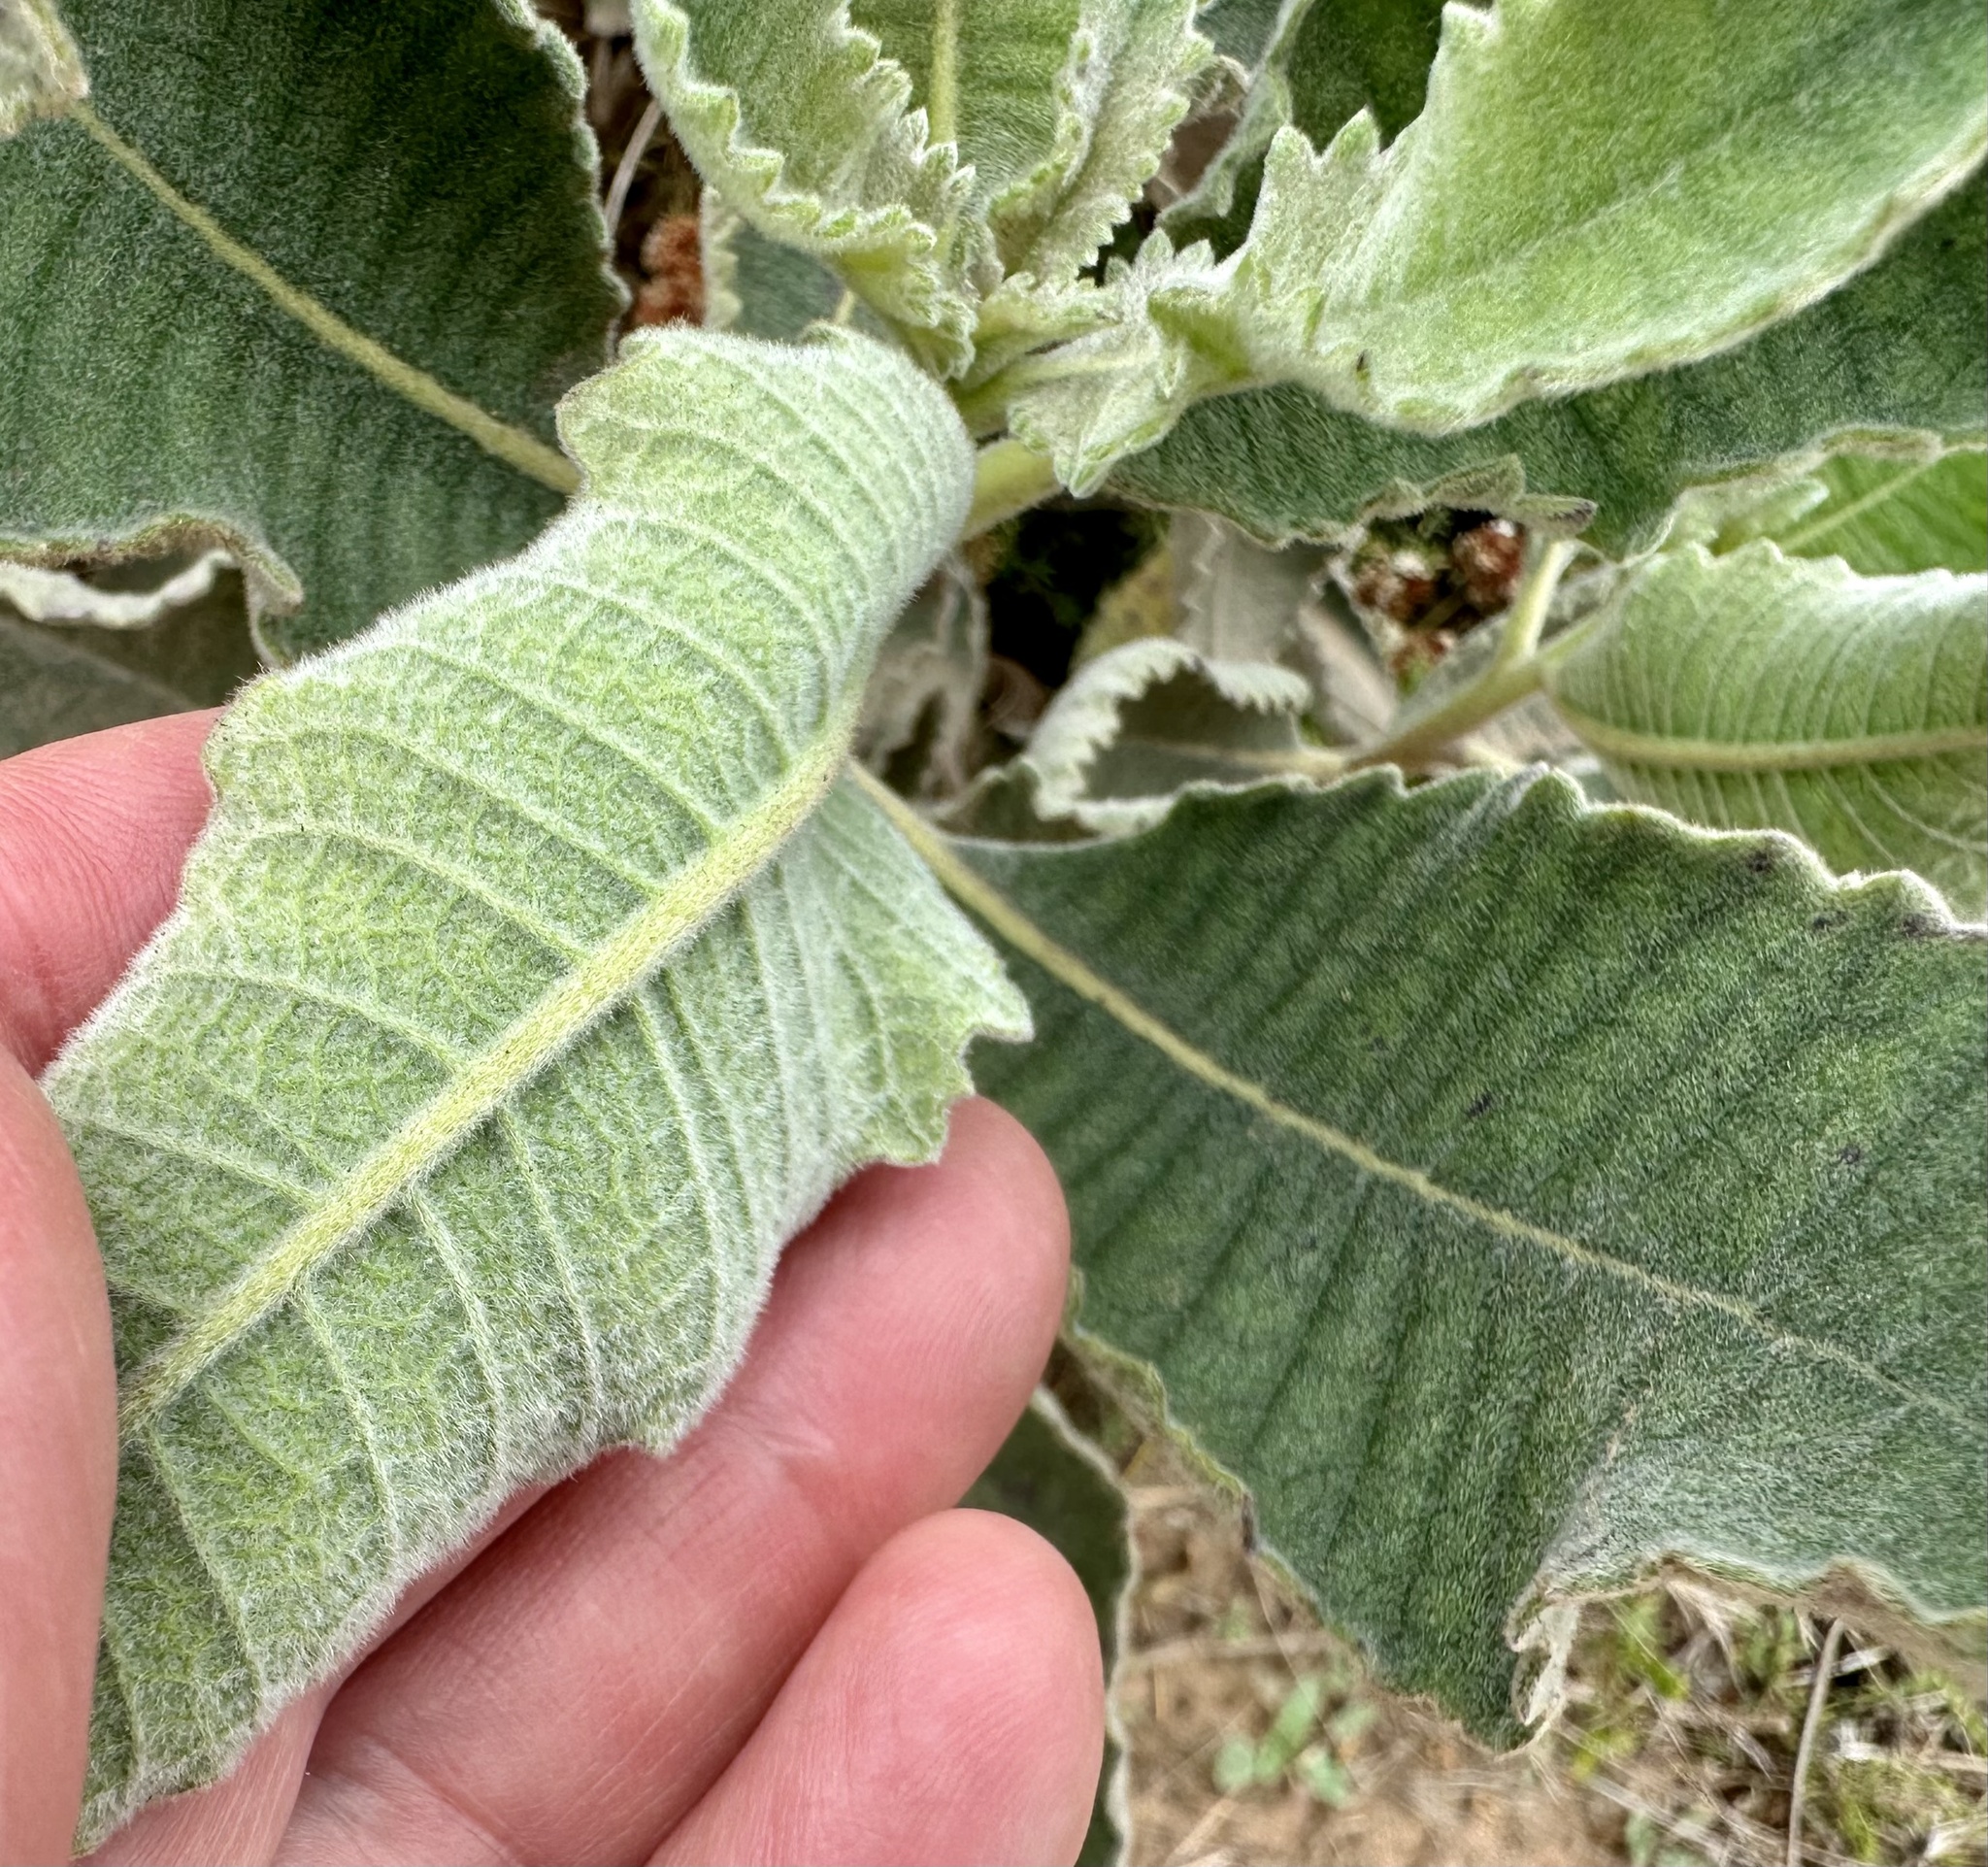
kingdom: Plantae
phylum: Tracheophyta
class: Magnoliopsida
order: Boraginales
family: Namaceae
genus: Eriodictyon
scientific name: Eriodictyon crassifolium
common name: Thick-leaf yerba-santa
